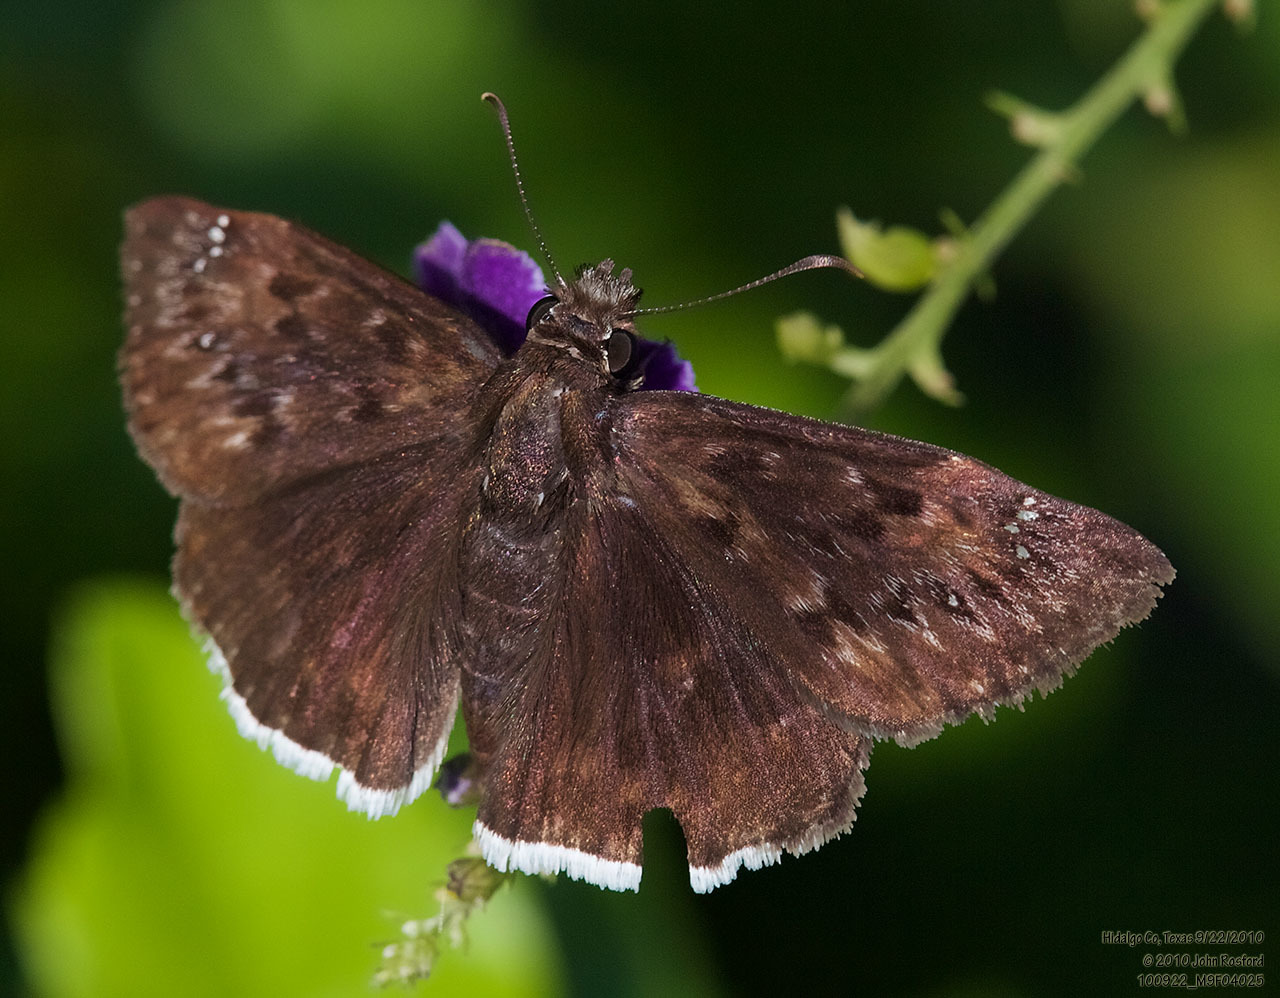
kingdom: Animalia
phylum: Arthropoda
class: Insecta
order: Lepidoptera
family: Hesperiidae
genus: Erynnis
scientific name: Erynnis tristis
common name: Mournful duskywing
